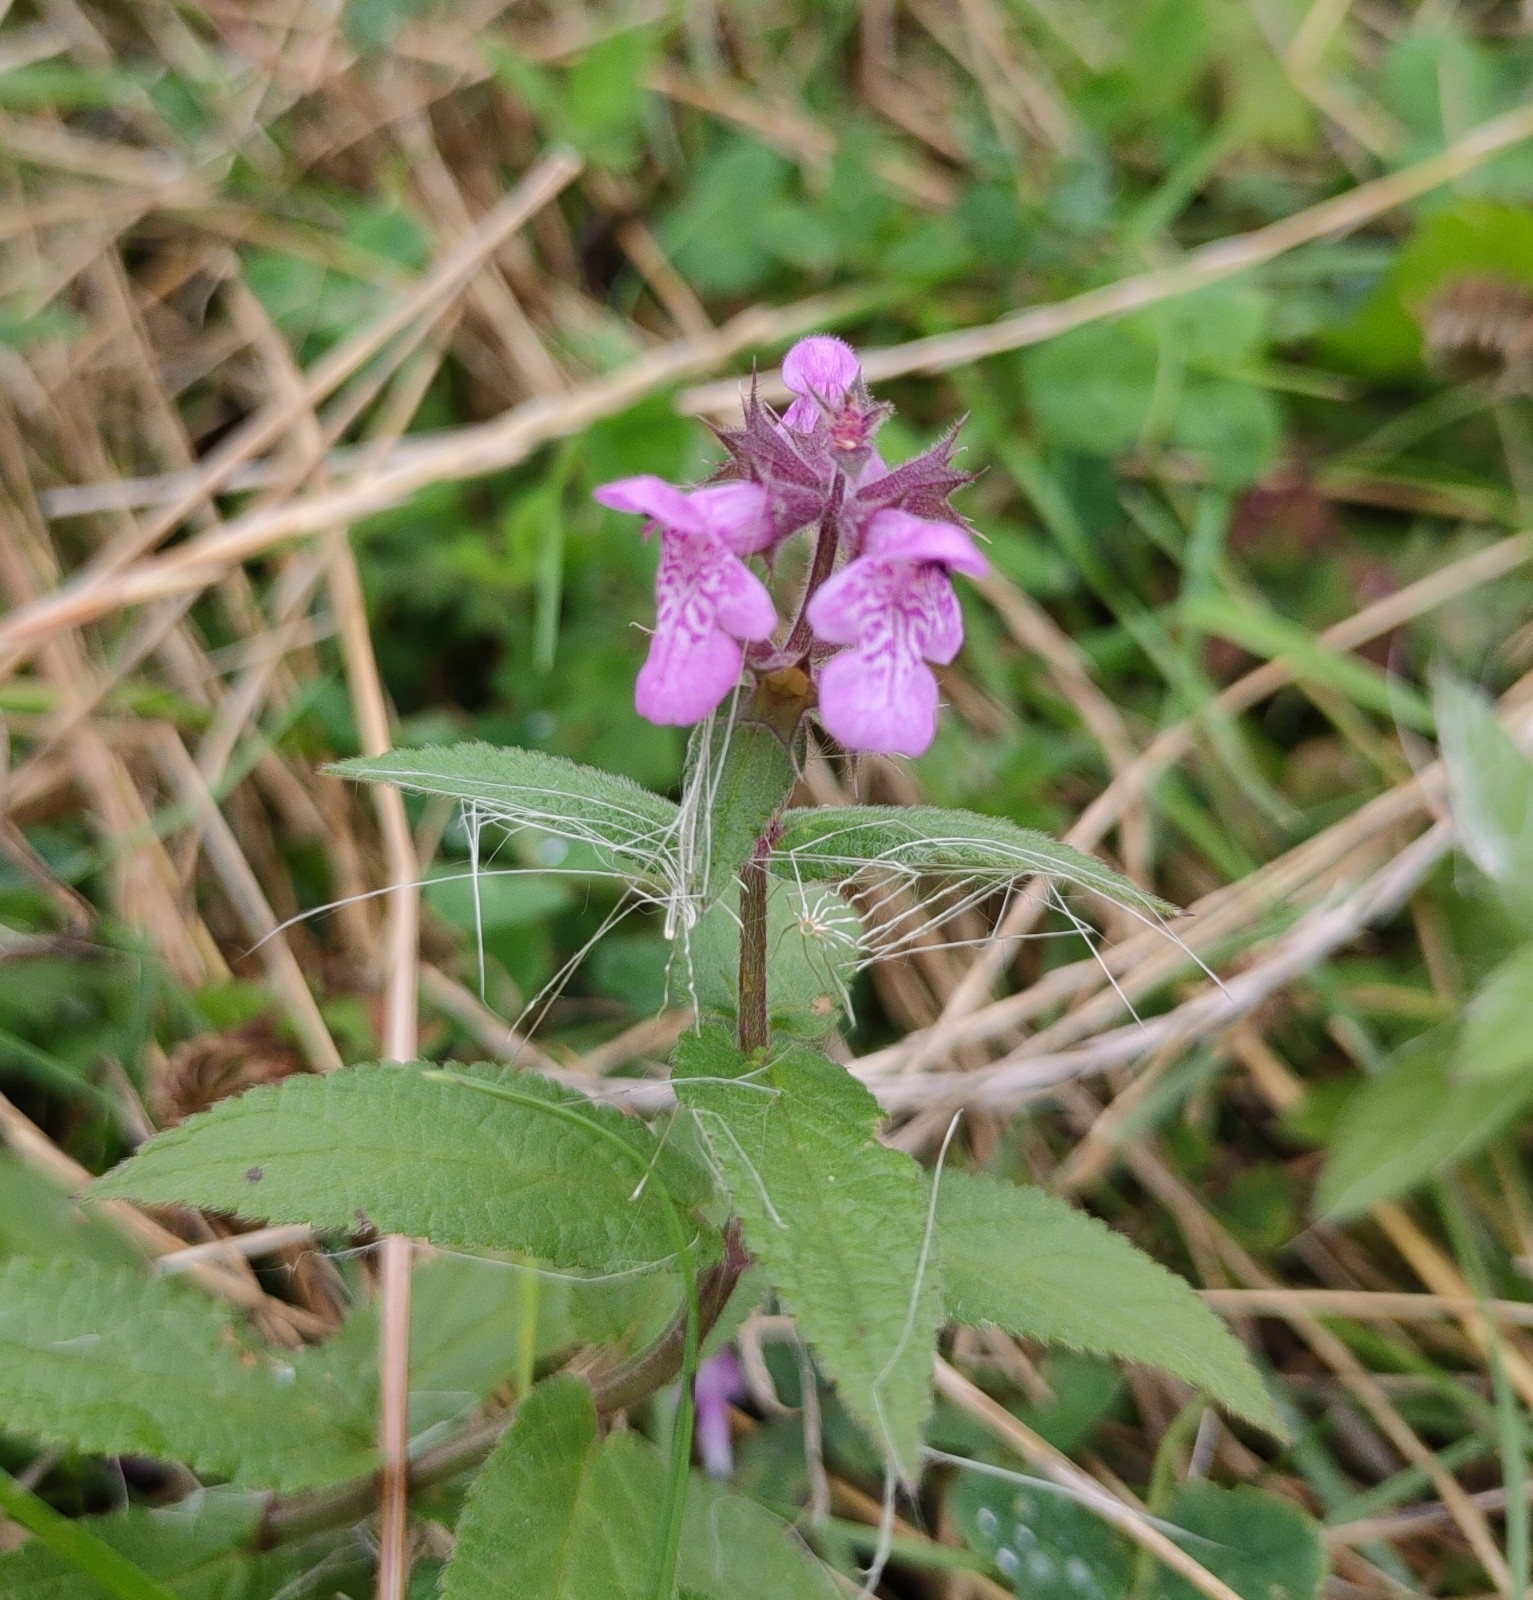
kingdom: Plantae
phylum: Tracheophyta
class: Magnoliopsida
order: Lamiales
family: Lamiaceae
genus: Stachys
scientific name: Stachys palustris
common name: Marsh woundwort
